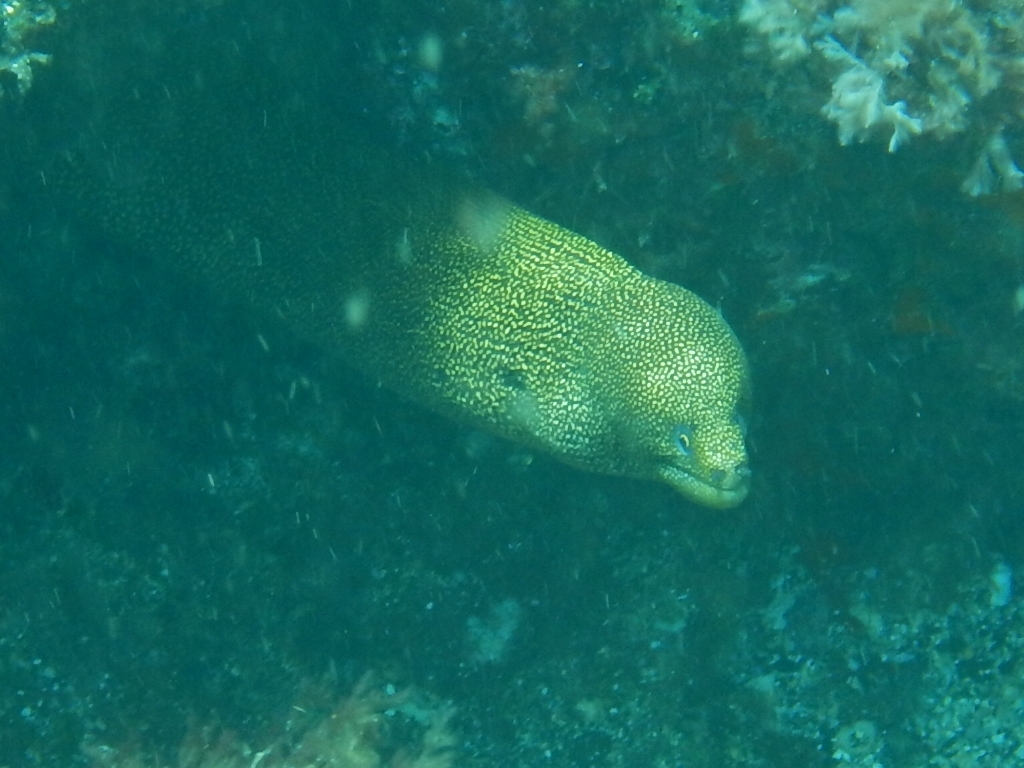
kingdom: Animalia
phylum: Chordata
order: Anguilliformes
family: Muraenidae
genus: Gymnothorax
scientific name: Gymnothorax miliaris
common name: Goldentail moray
